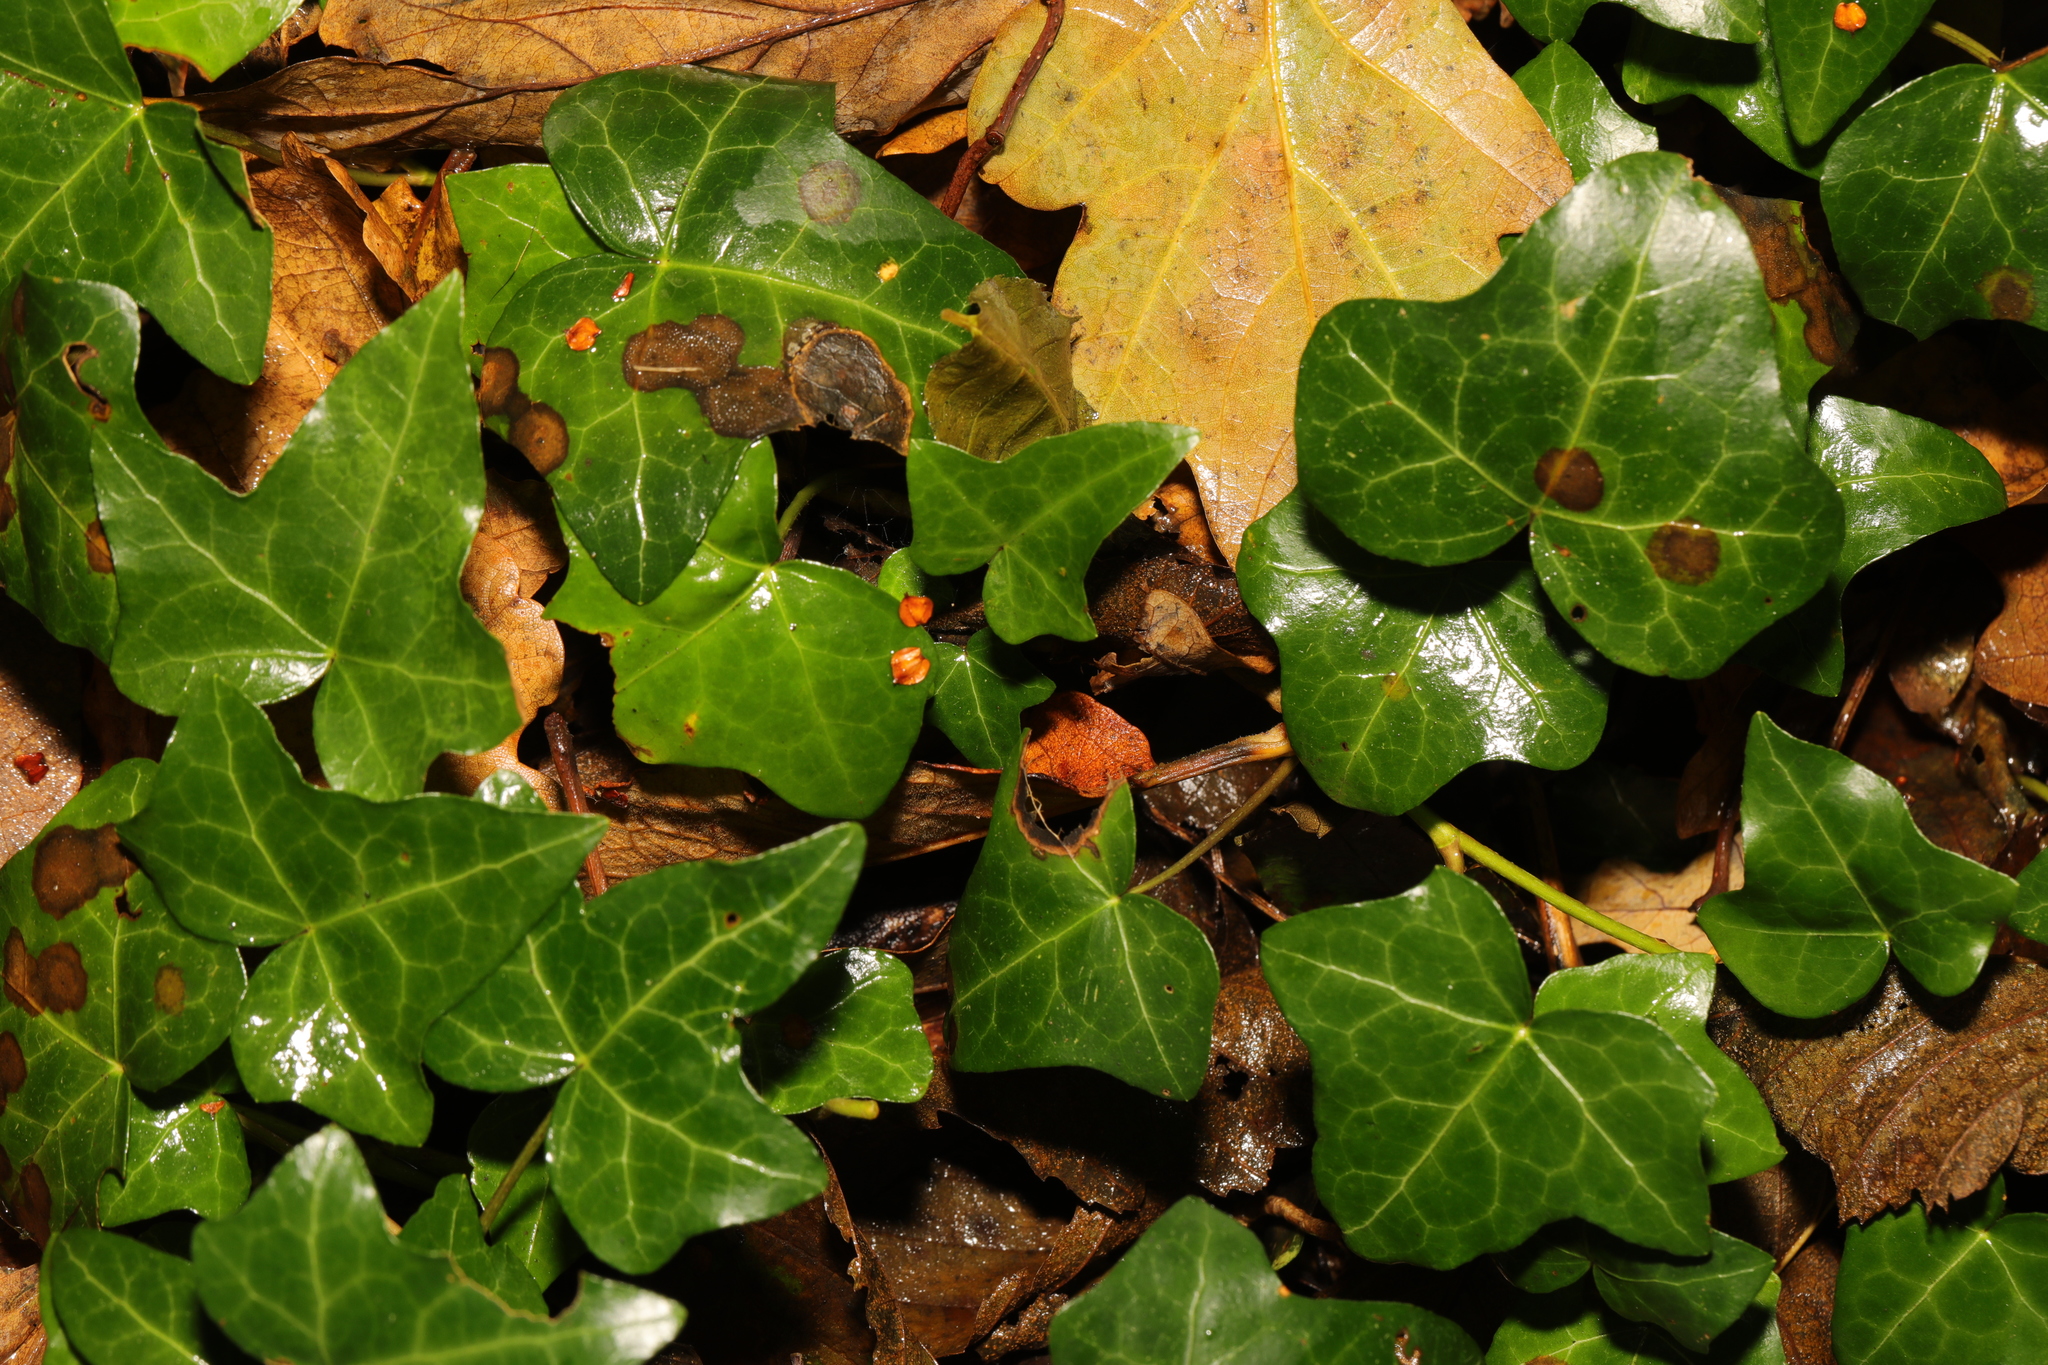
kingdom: Plantae
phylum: Tracheophyta
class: Magnoliopsida
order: Apiales
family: Araliaceae
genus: Hedera
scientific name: Hedera helix
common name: Ivy
